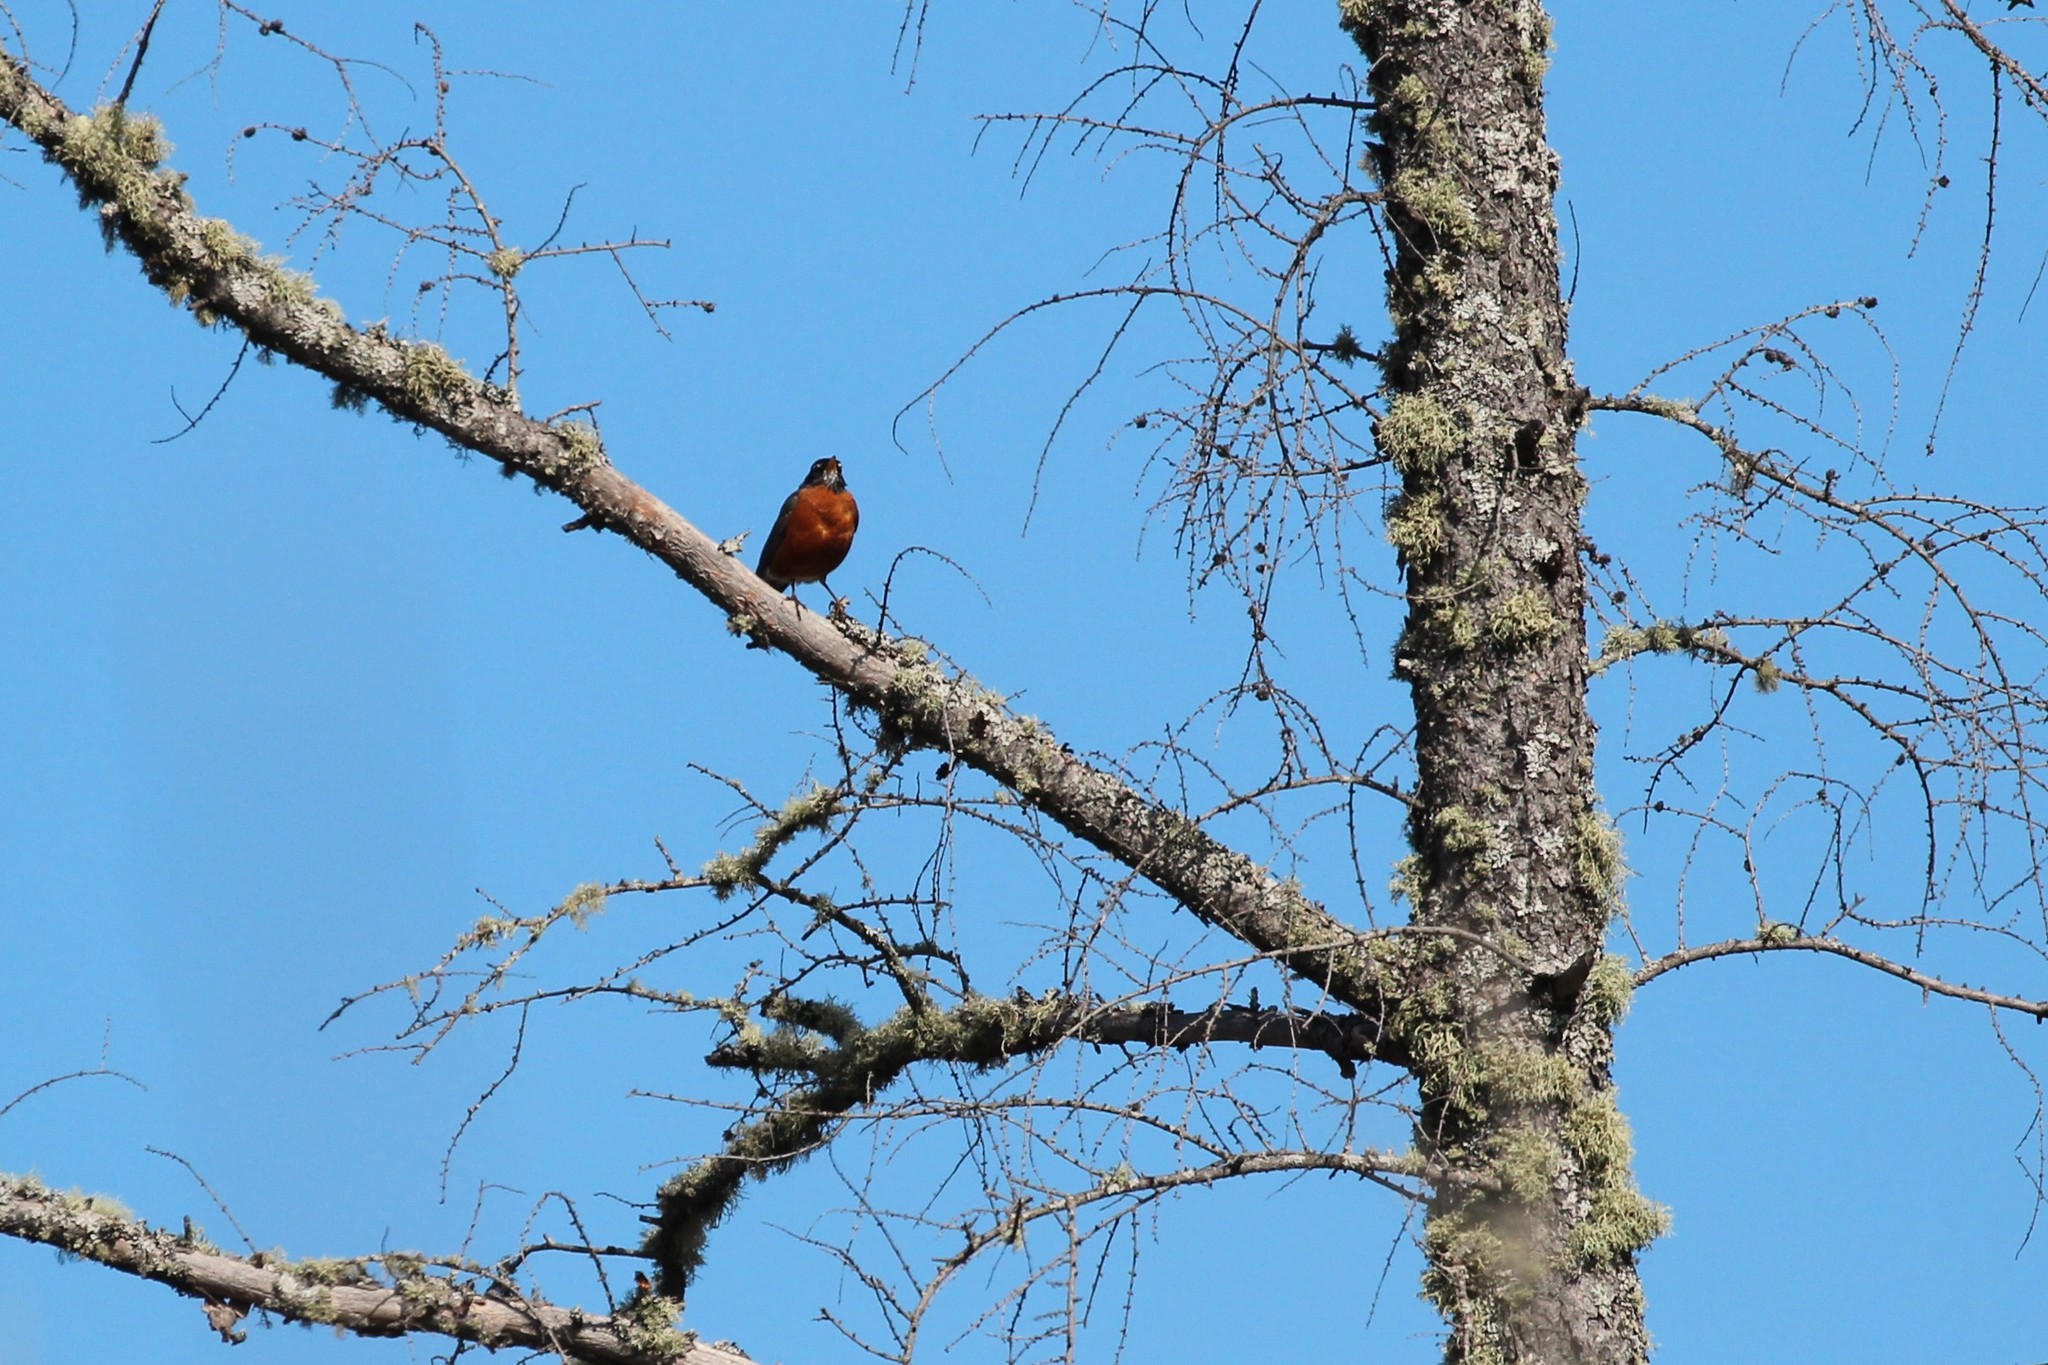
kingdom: Animalia
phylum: Chordata
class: Aves
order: Passeriformes
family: Turdidae
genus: Turdus
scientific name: Turdus migratorius
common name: American robin
